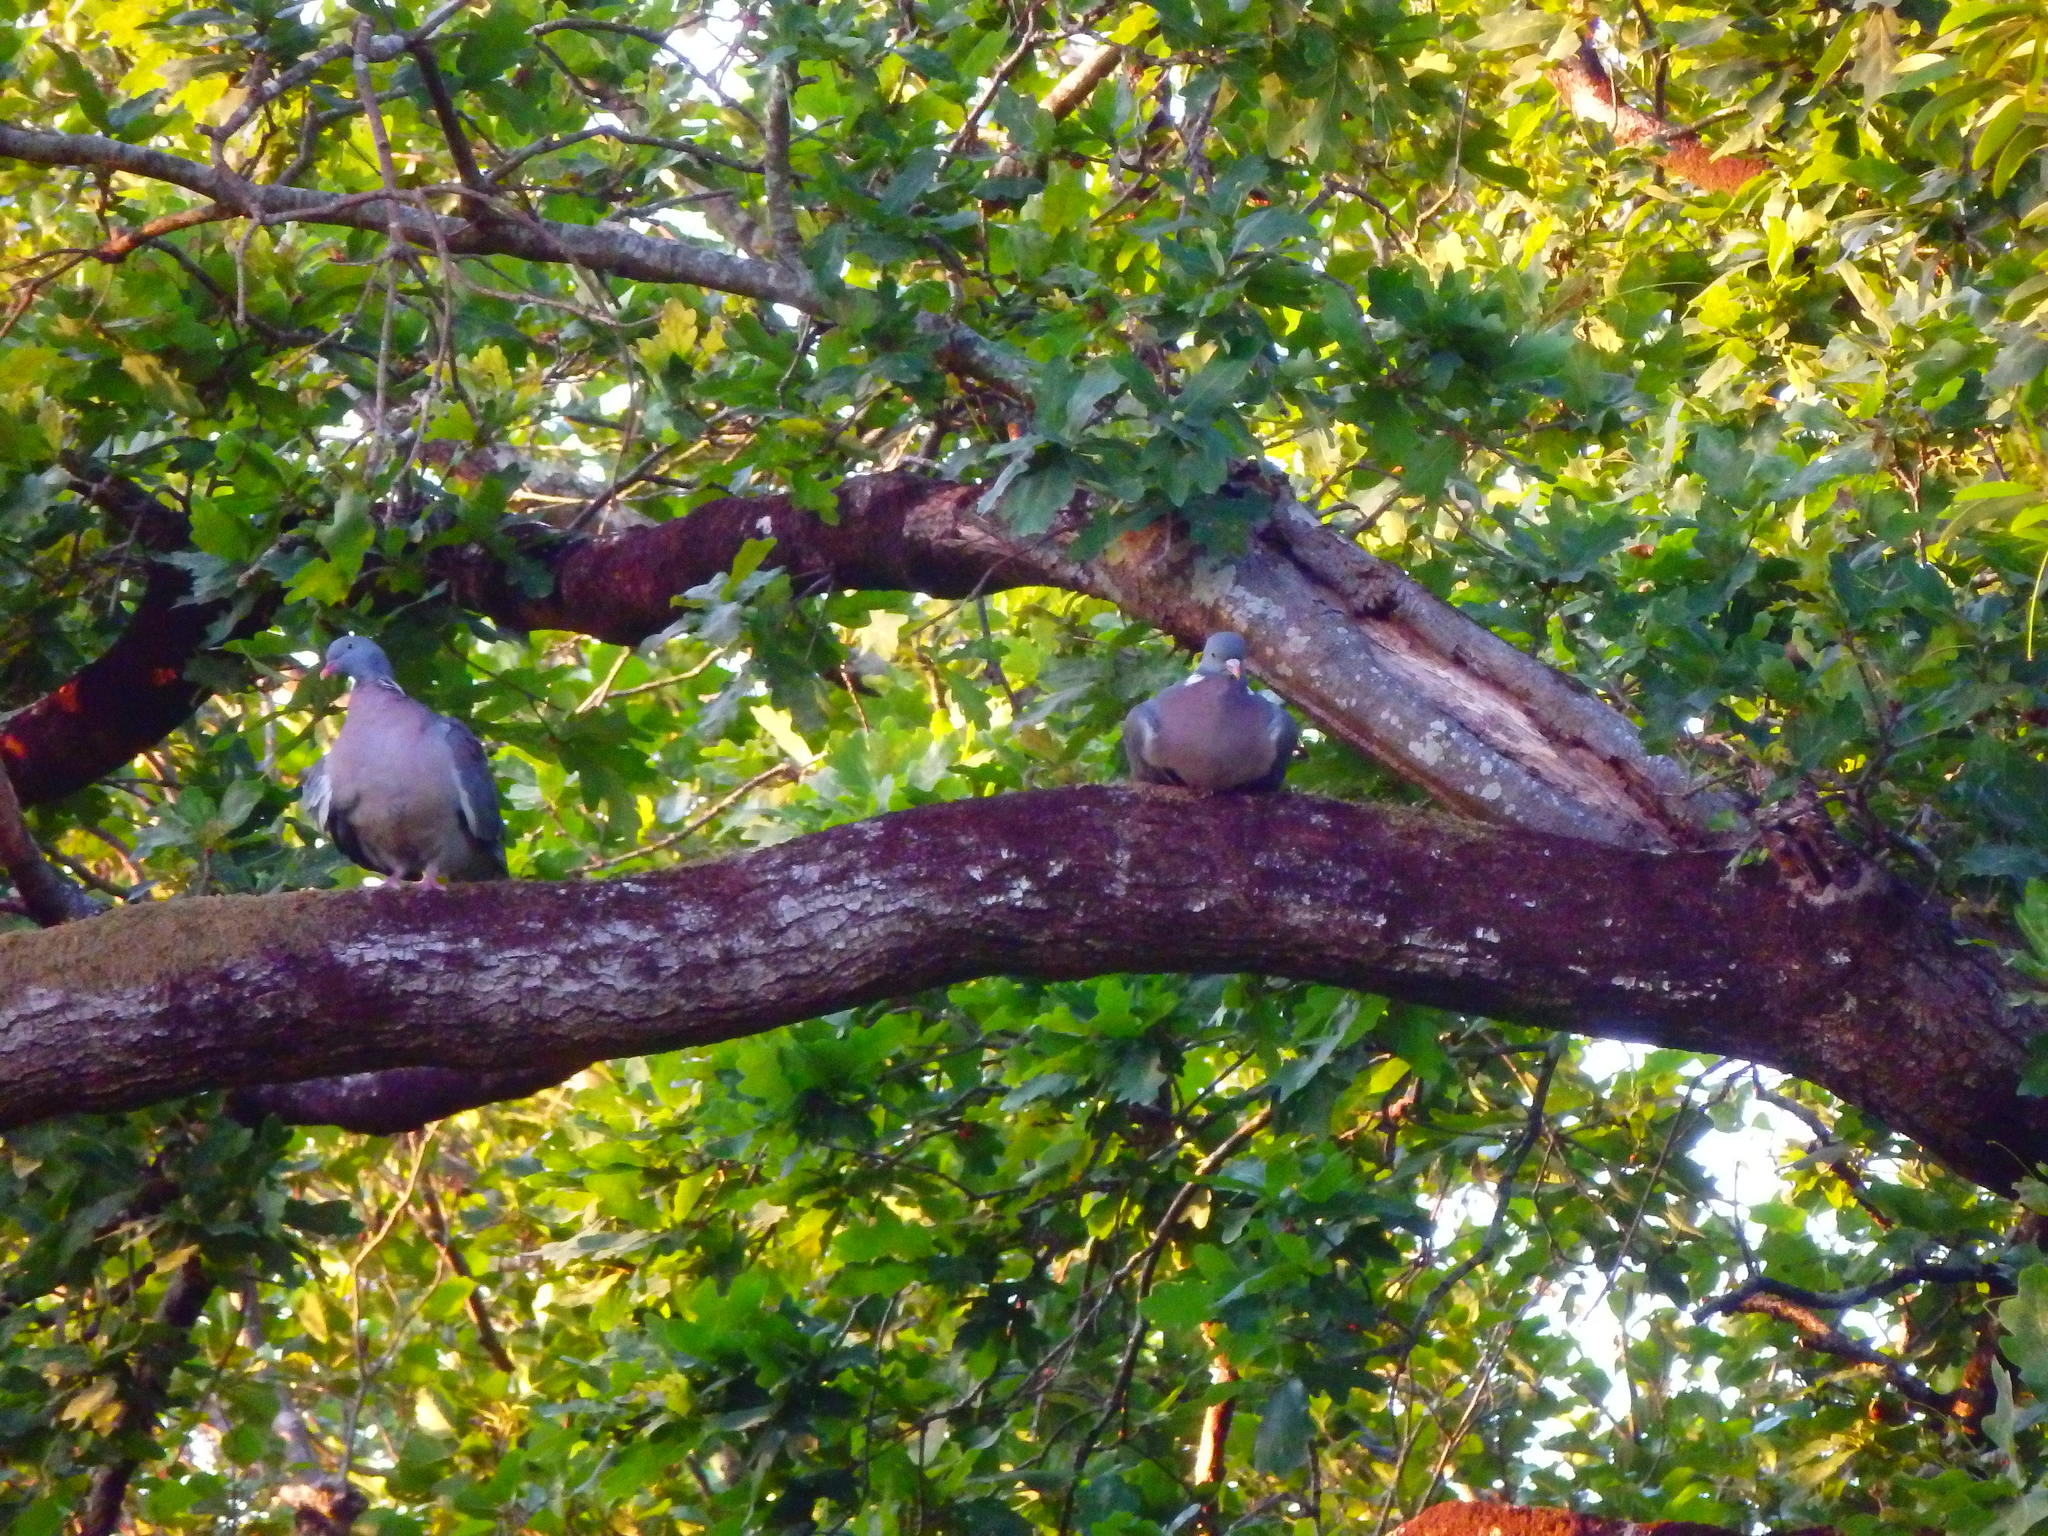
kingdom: Animalia
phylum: Chordata
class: Aves
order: Columbiformes
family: Columbidae
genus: Columba
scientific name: Columba palumbus
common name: Common wood pigeon
